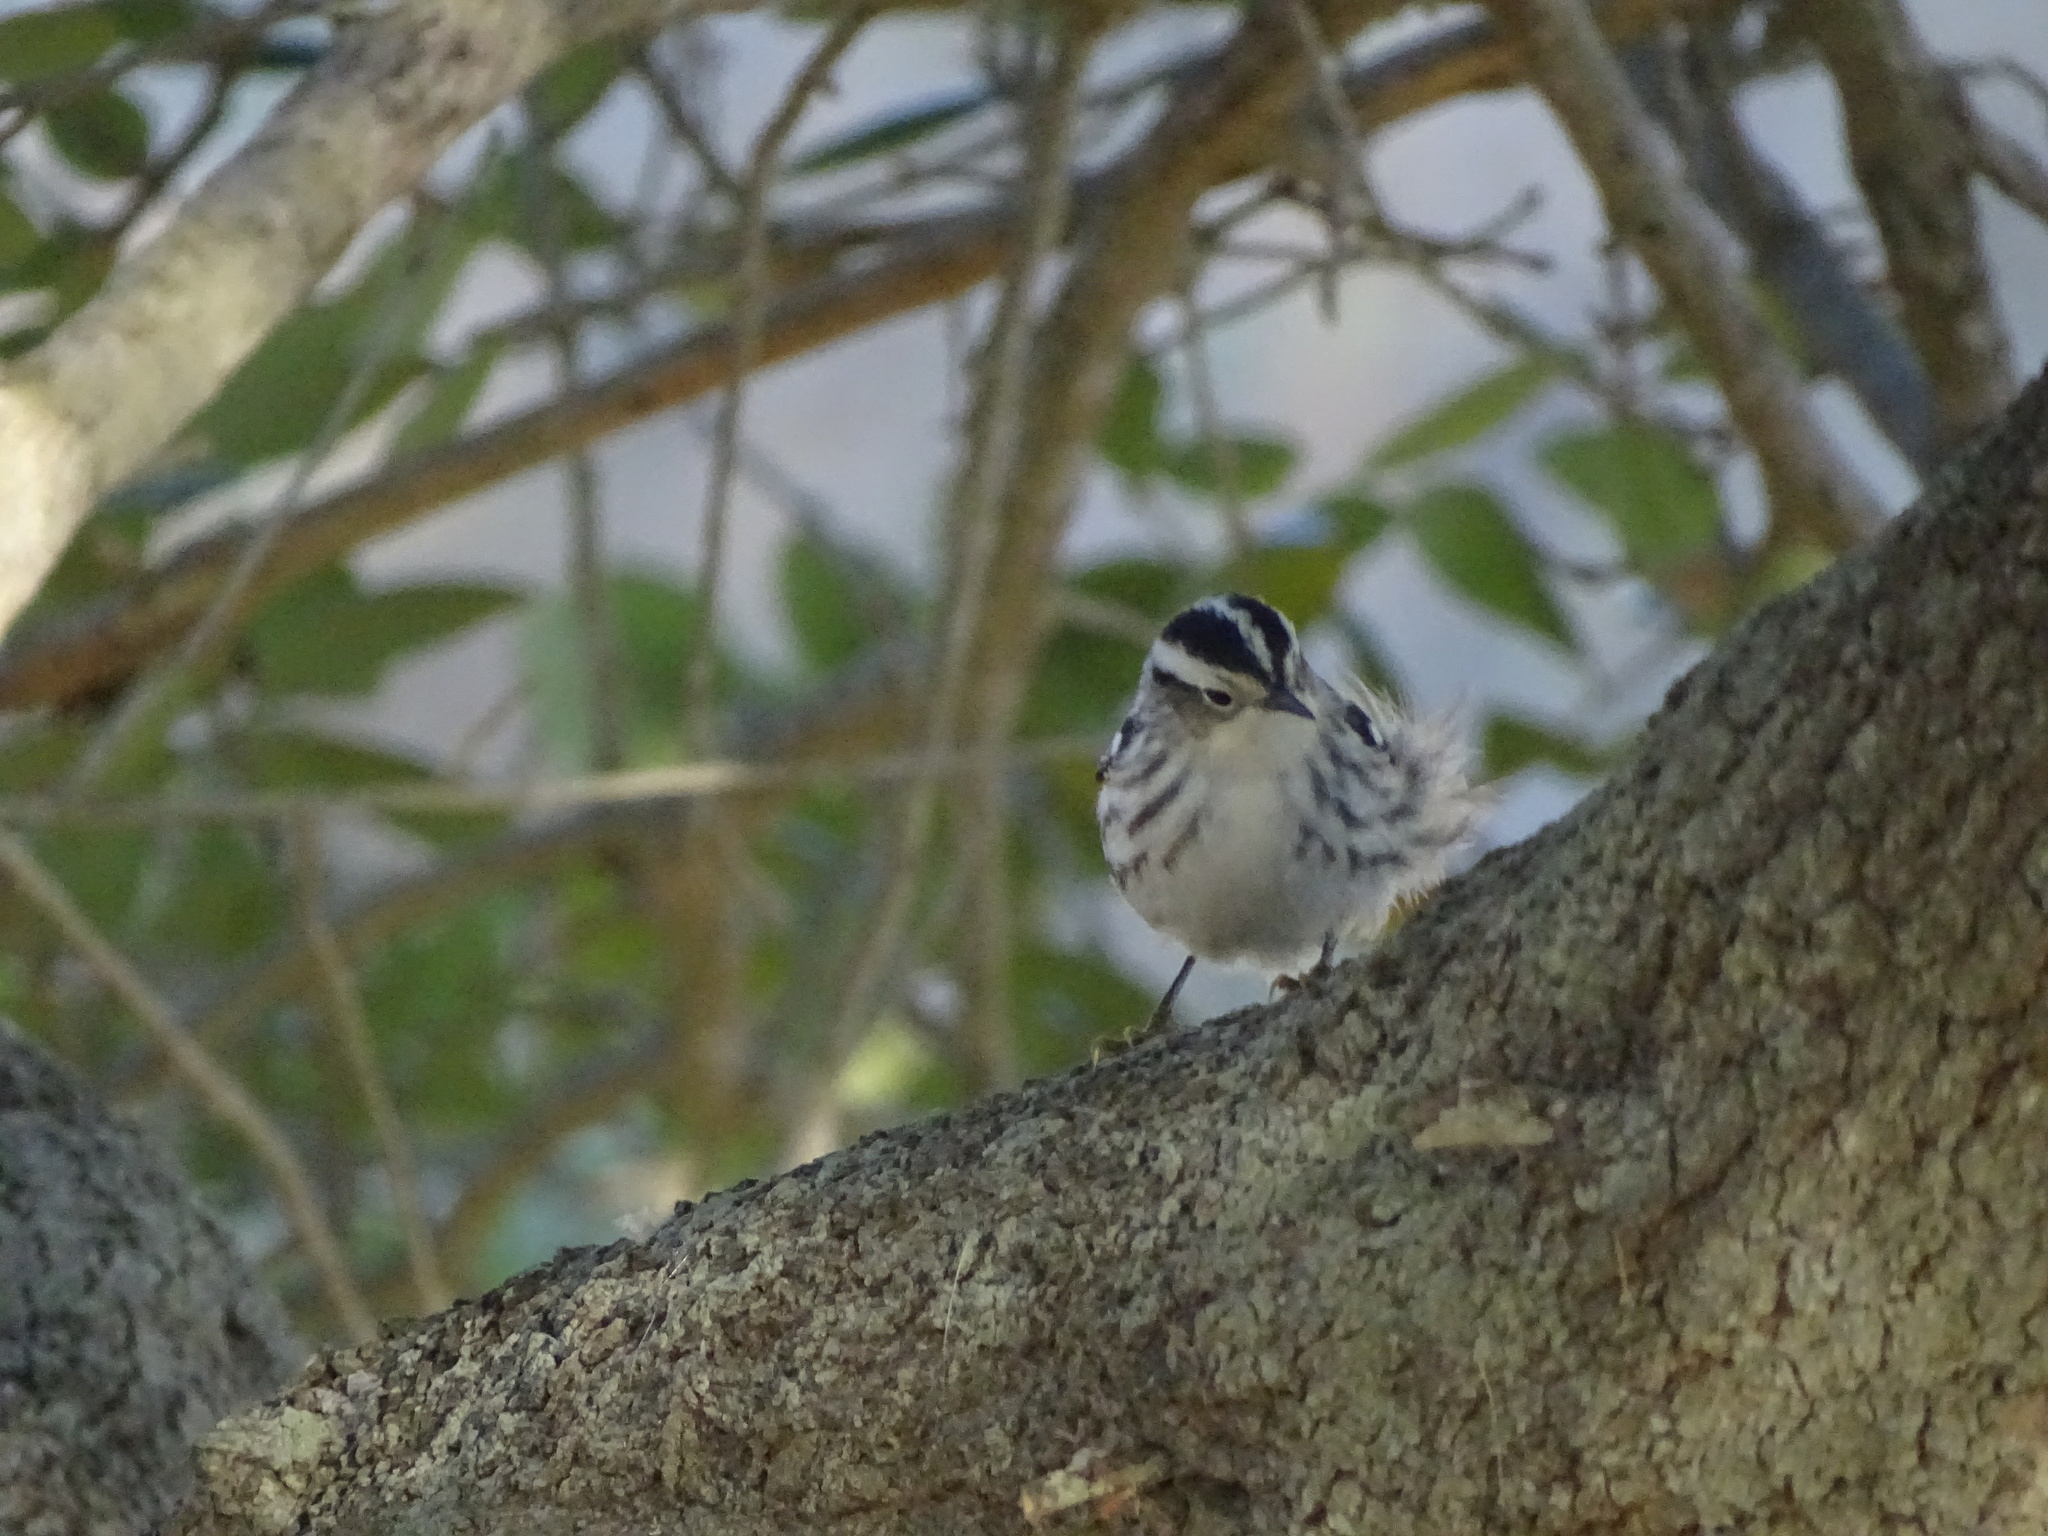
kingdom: Animalia
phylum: Chordata
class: Aves
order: Passeriformes
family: Parulidae
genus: Mniotilta
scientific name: Mniotilta varia
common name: Black-and-white warbler
